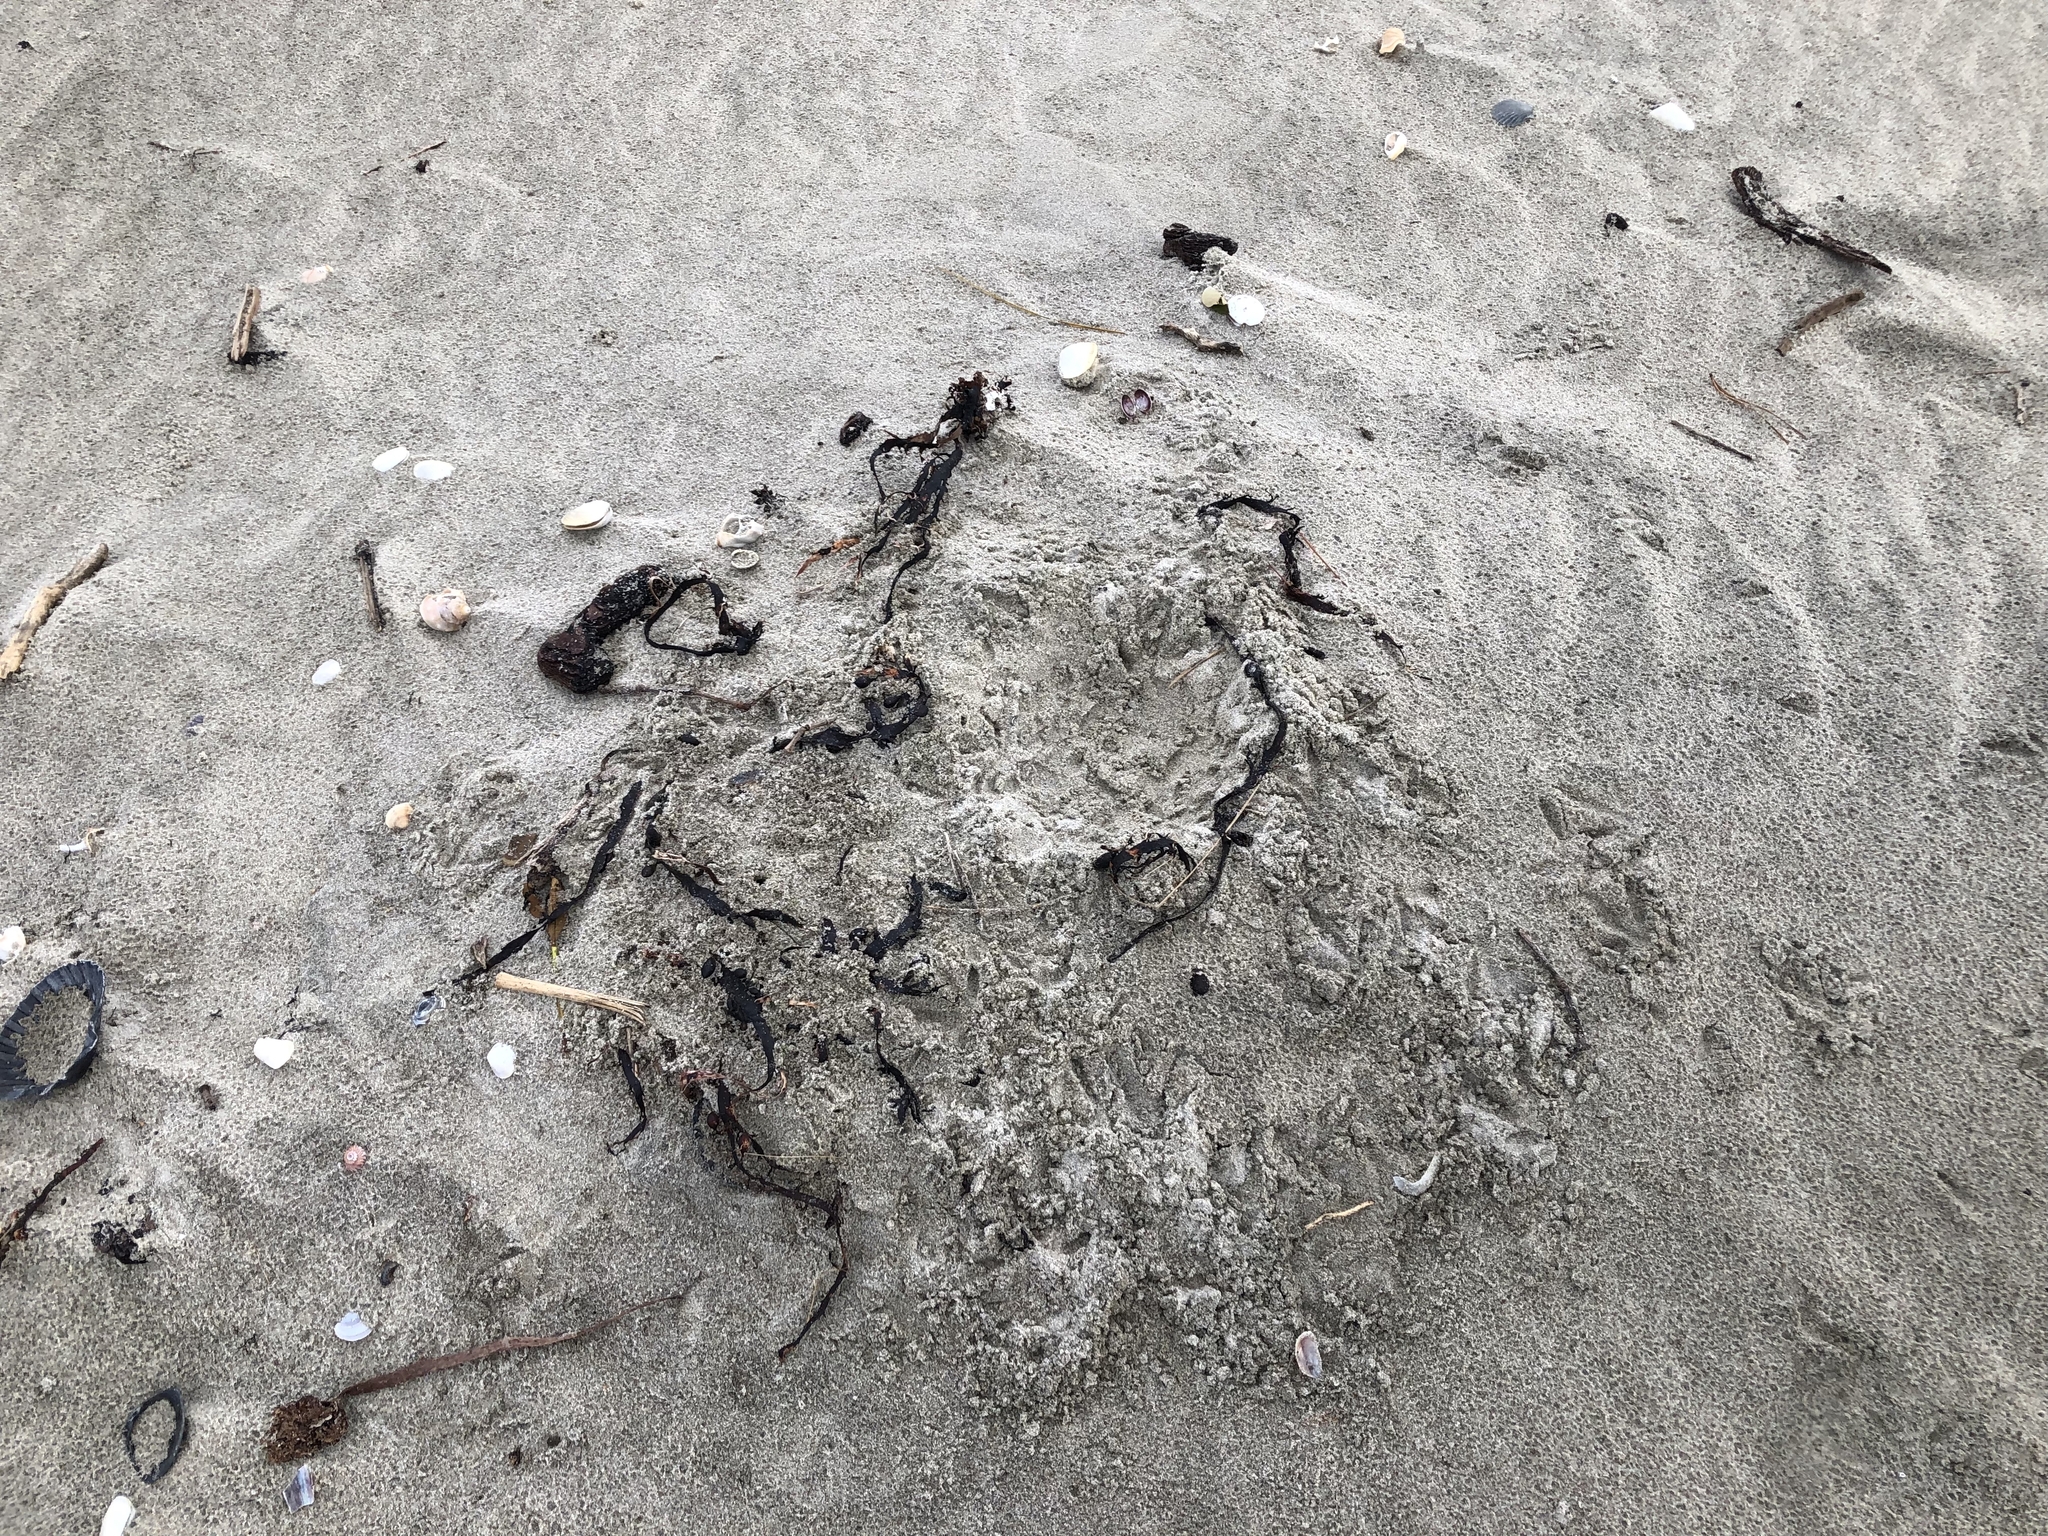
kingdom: Animalia
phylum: Chordata
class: Aves
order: Charadriiformes
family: Haematopodidae
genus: Haematopus
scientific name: Haematopus unicolor
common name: Variable oystercatcher
